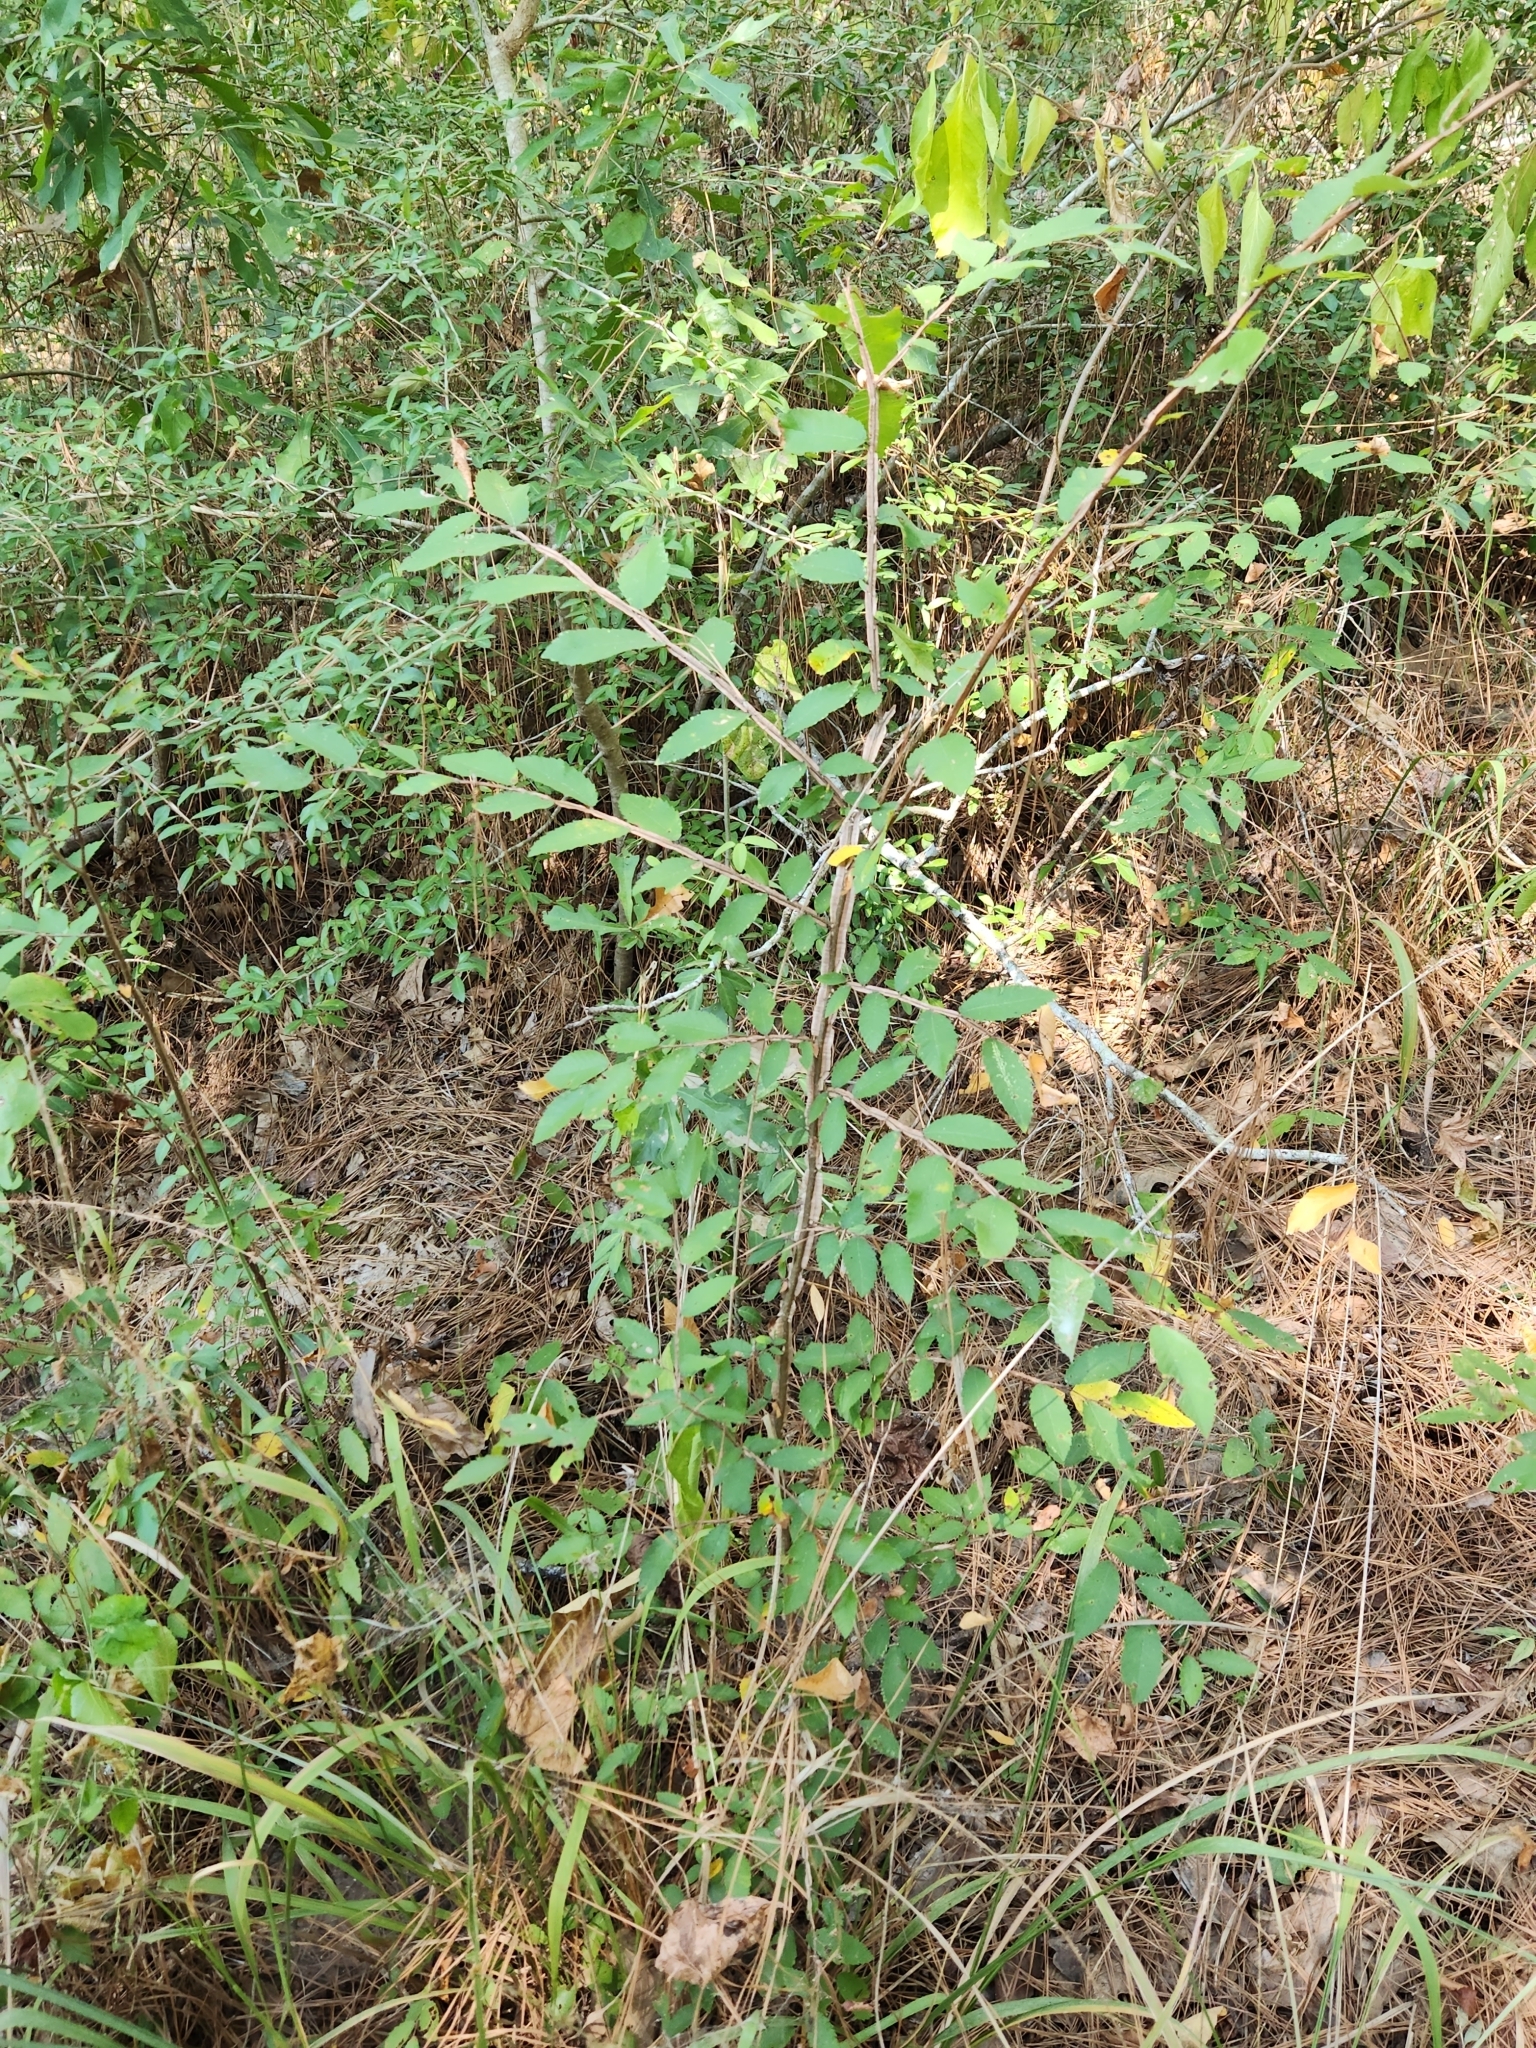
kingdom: Plantae
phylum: Tracheophyta
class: Magnoliopsida
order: Rosales
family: Ulmaceae
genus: Ulmus
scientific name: Ulmus alata
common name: Winged elm
